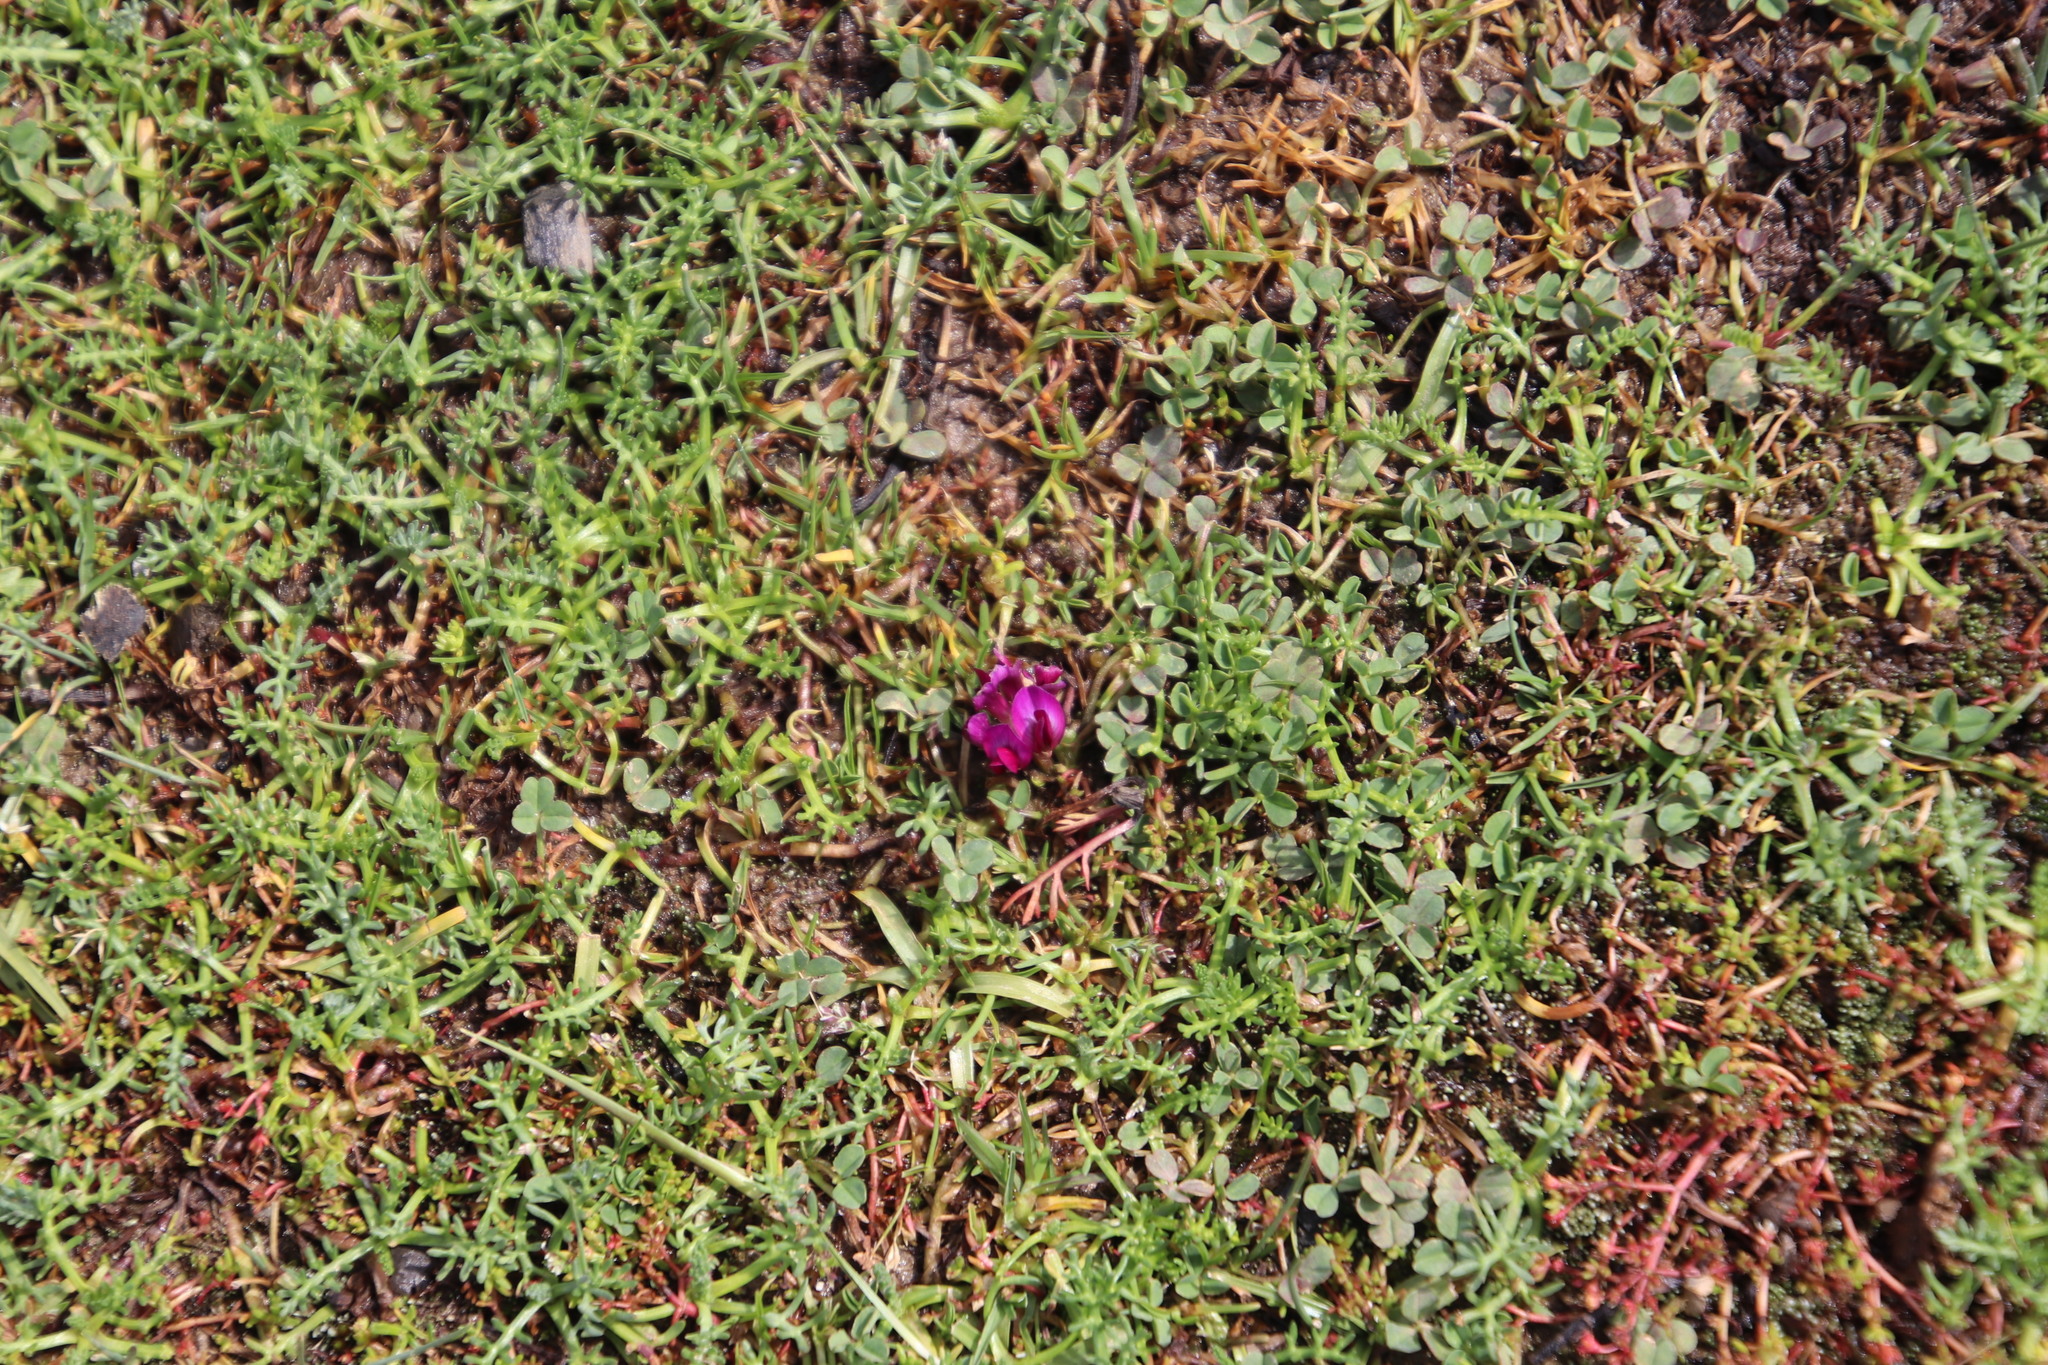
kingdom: Plantae
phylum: Tracheophyta
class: Magnoliopsida
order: Fabales
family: Fabaceae
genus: Trifolium
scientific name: Trifolium burchellianum
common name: Burchell's clover
